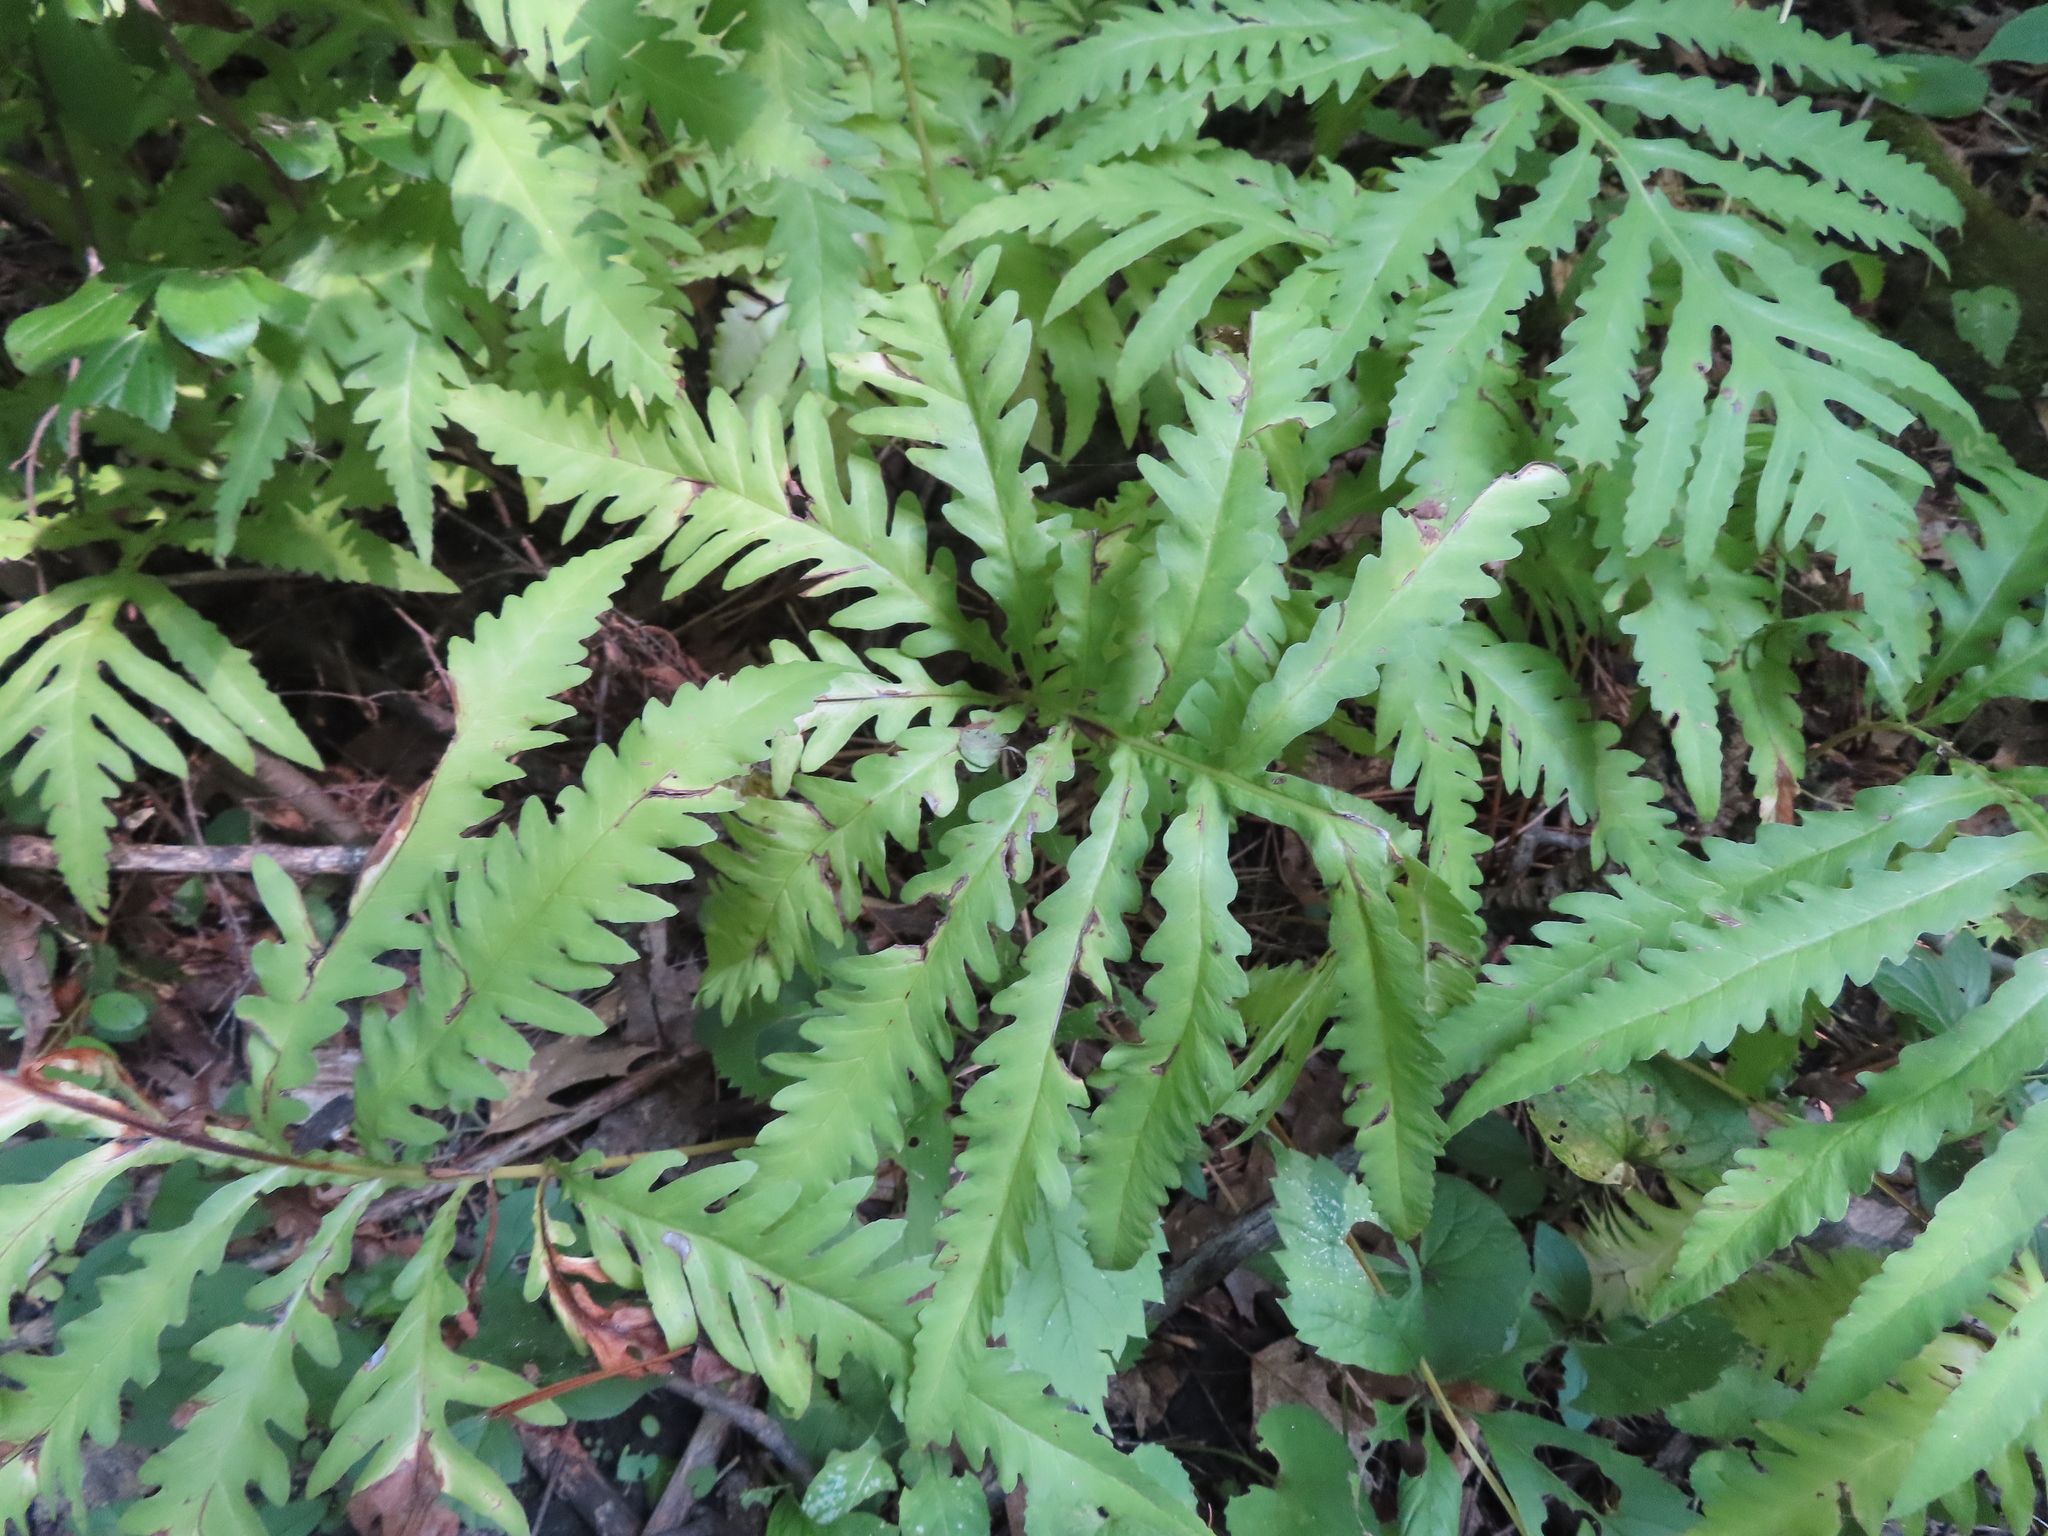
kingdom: Plantae
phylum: Tracheophyta
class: Polypodiopsida
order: Polypodiales
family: Onocleaceae
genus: Onoclea
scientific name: Onoclea sensibilis
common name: Sensitive fern
